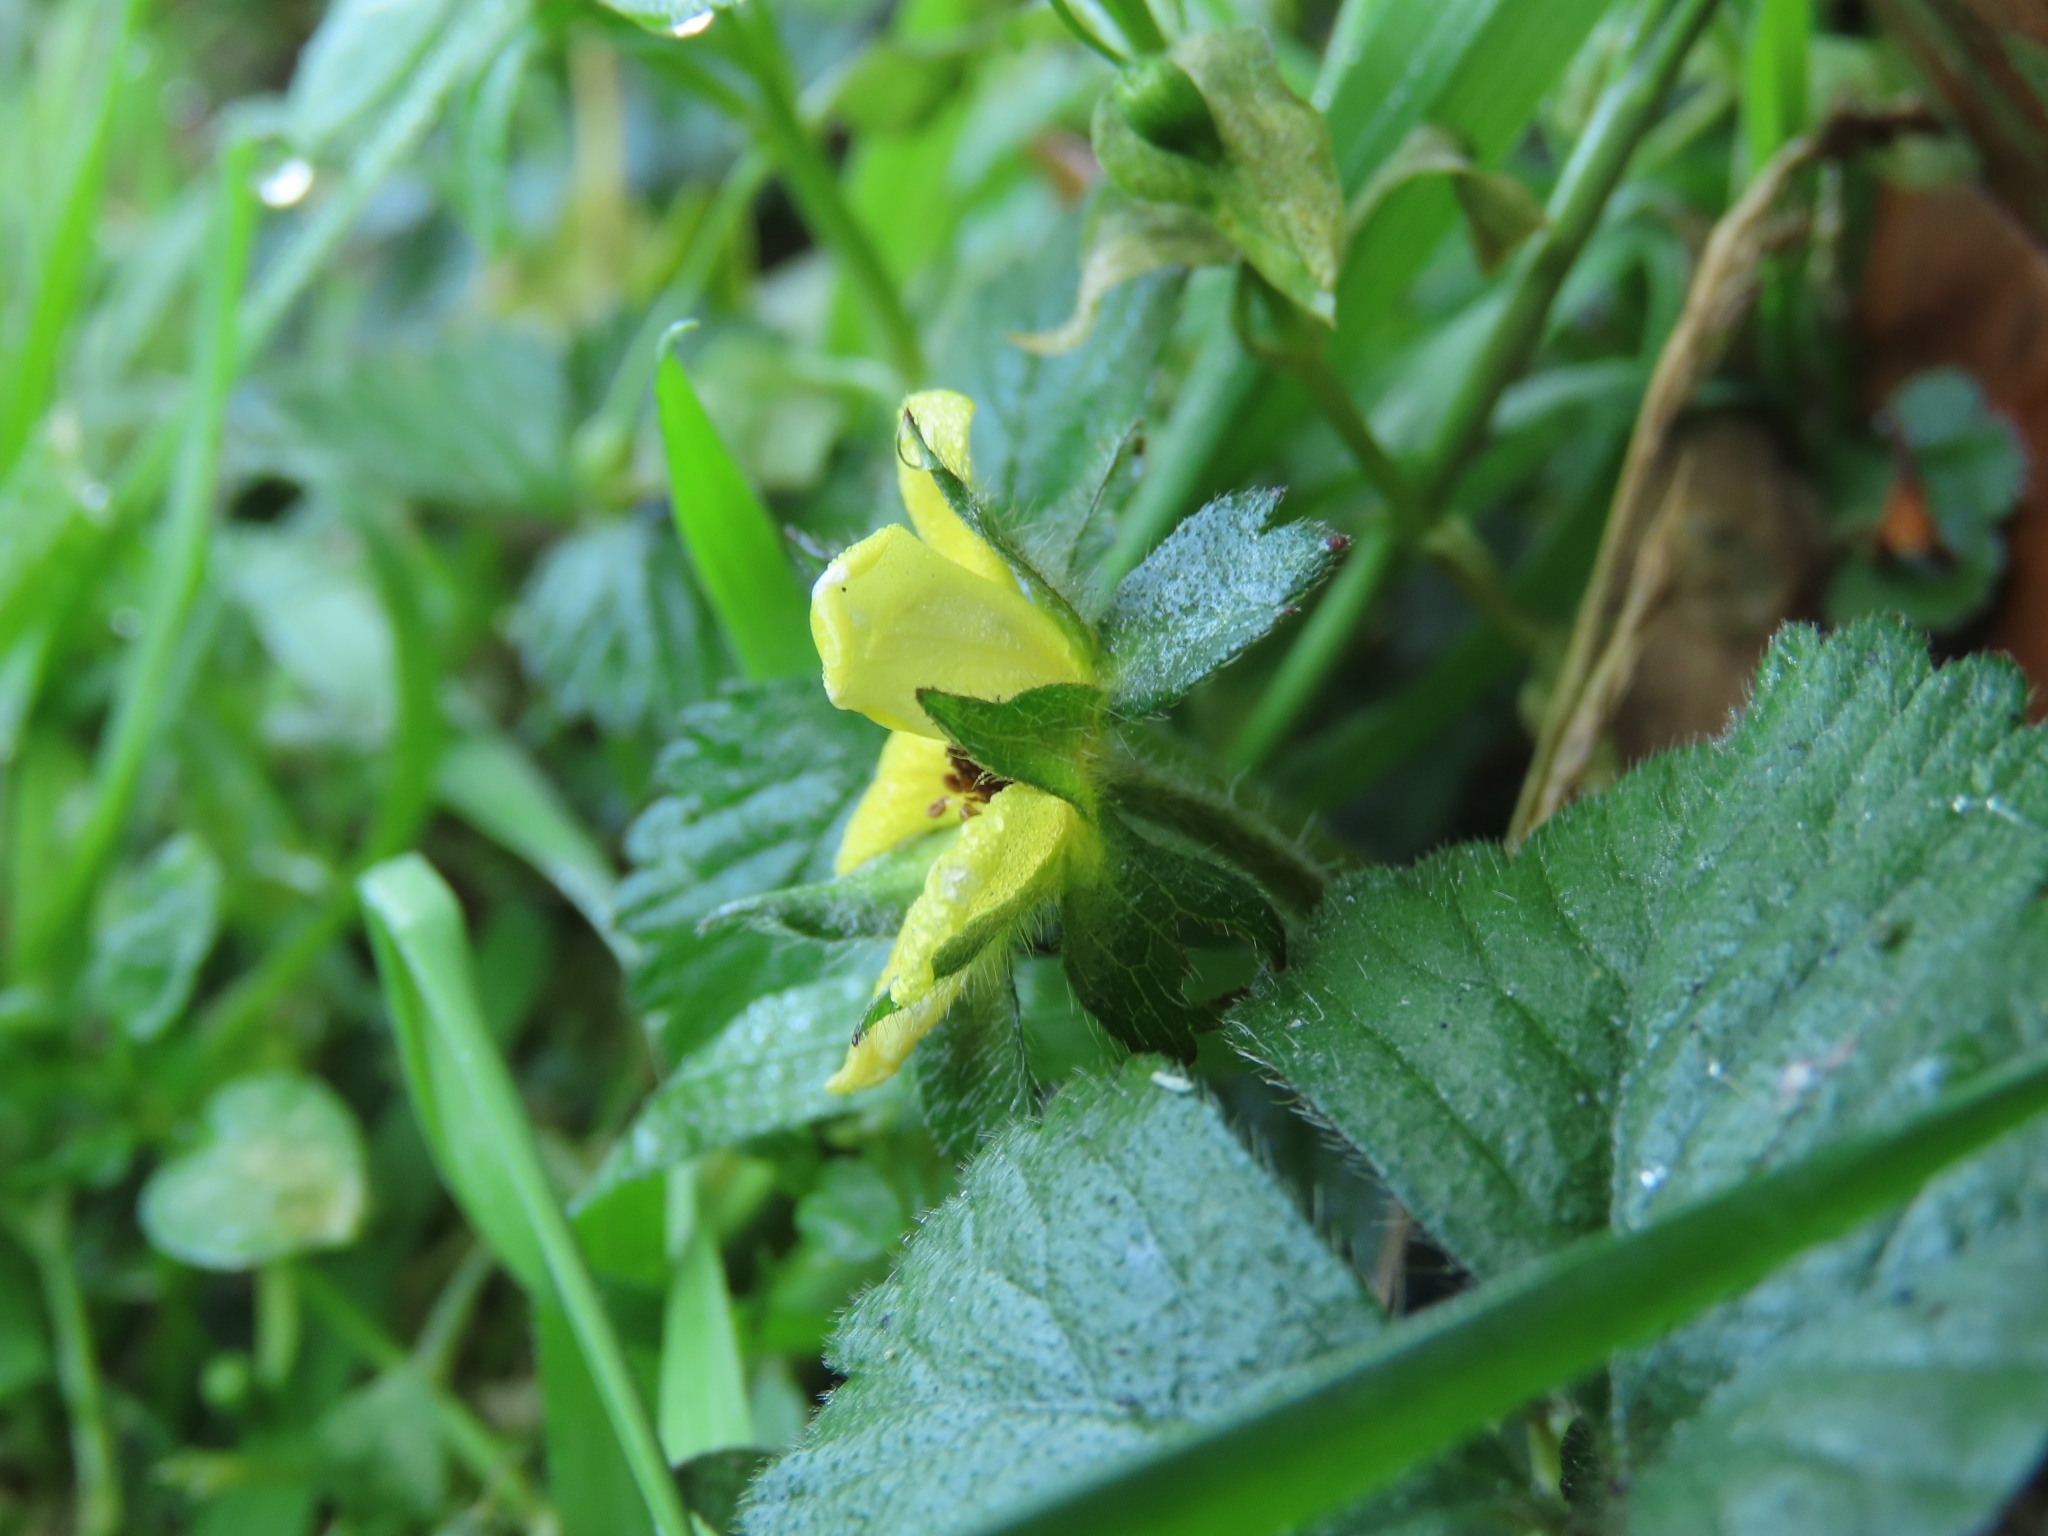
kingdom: Plantae
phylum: Tracheophyta
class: Magnoliopsida
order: Rosales
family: Rosaceae
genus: Potentilla
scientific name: Potentilla indica
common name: Yellow-flowered strawberry
